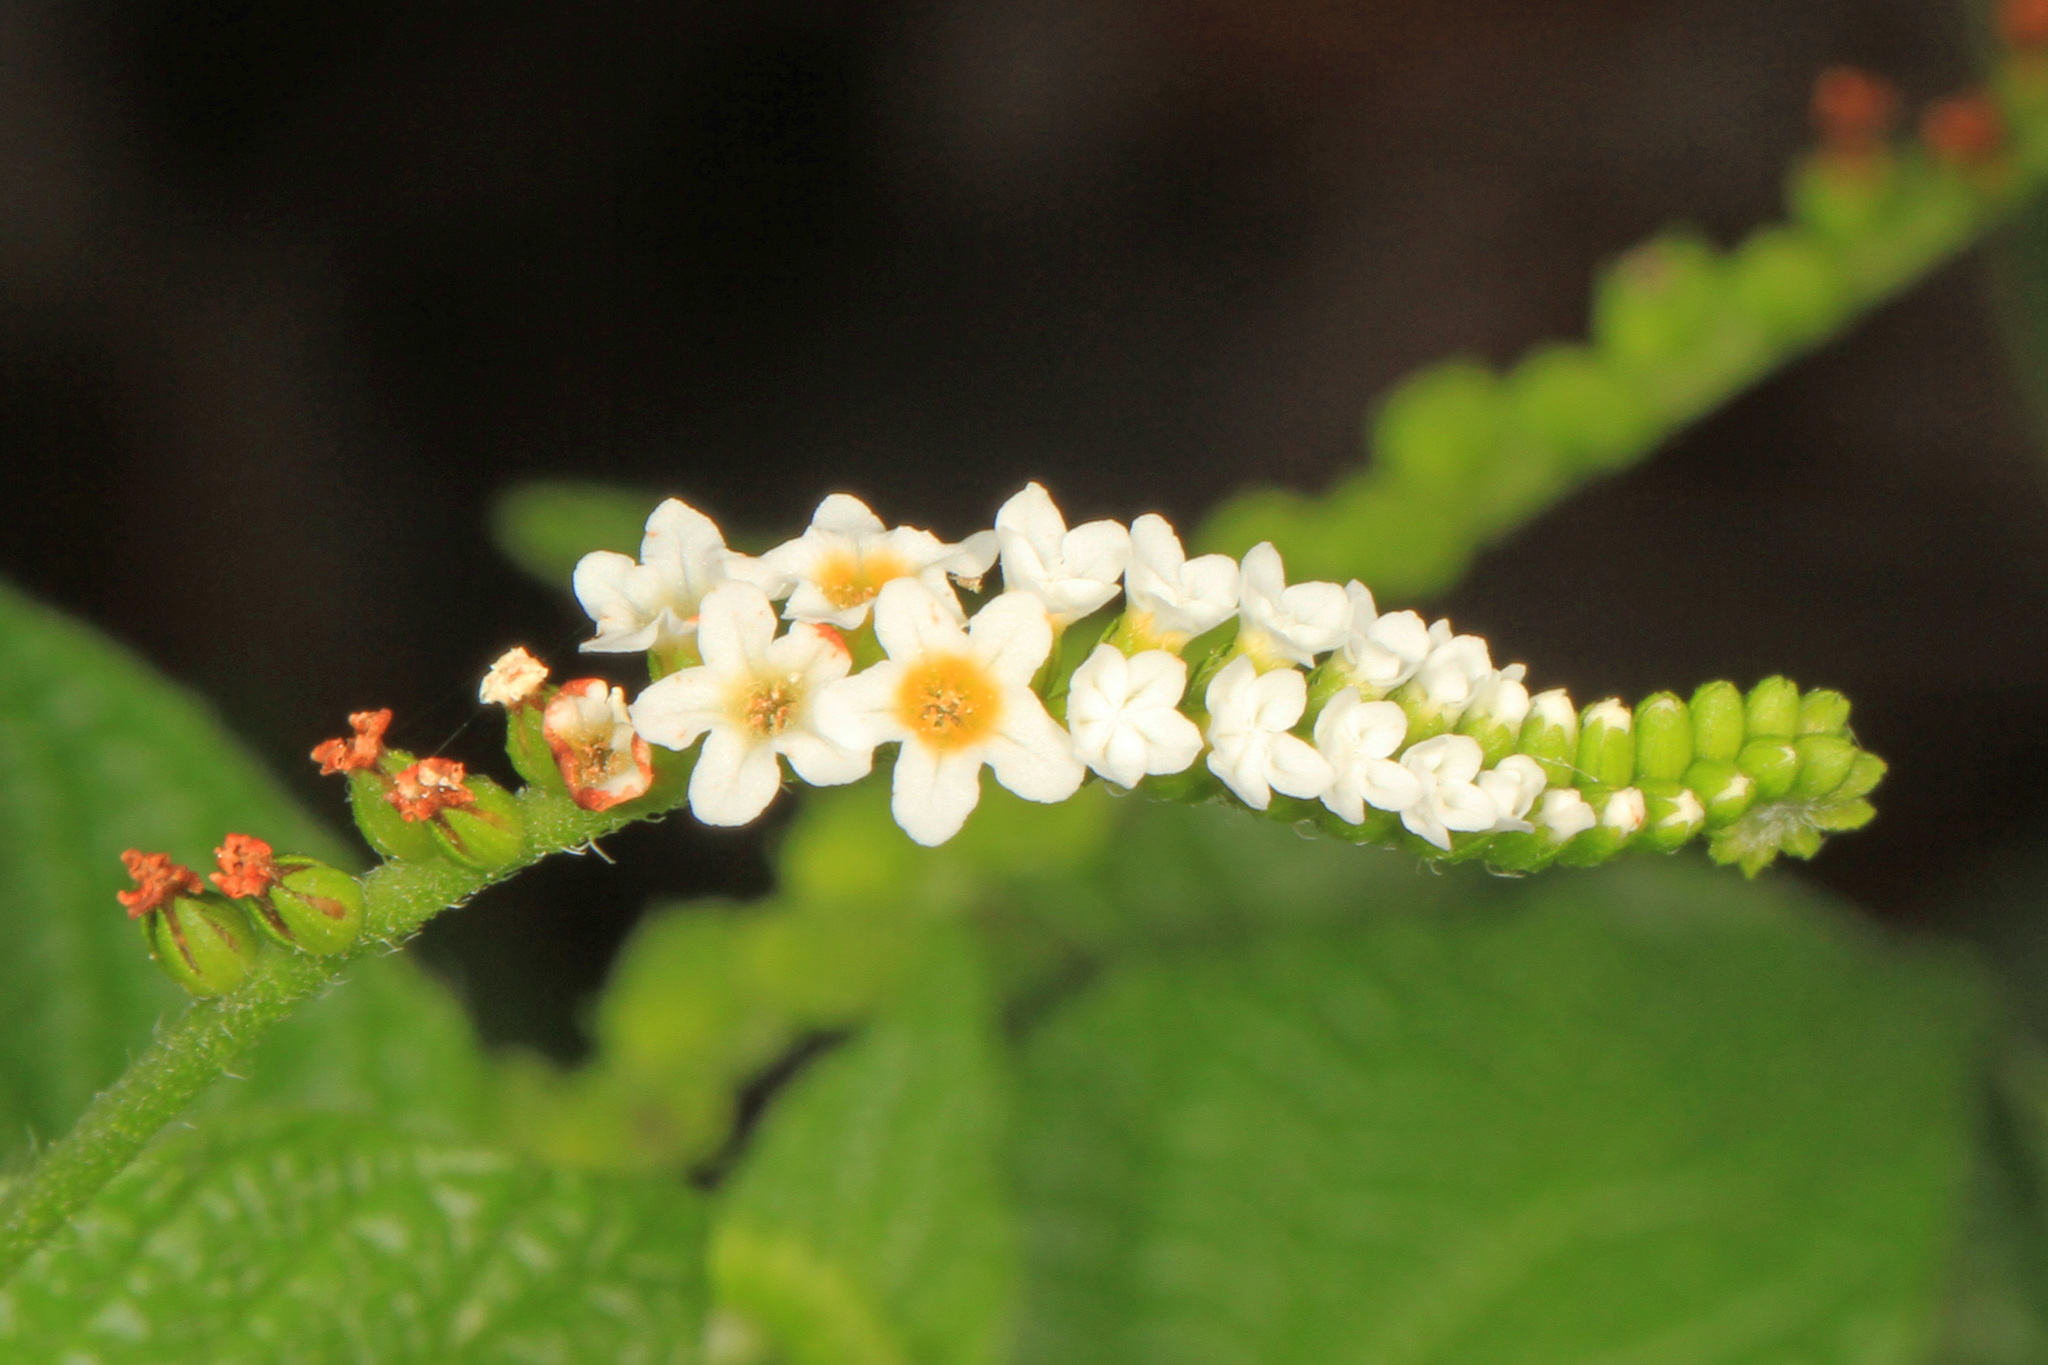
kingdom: Plantae
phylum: Tracheophyta
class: Magnoliopsida
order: Boraginales
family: Heliotropiaceae
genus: Heliotropium
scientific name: Heliotropium angiospermum
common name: Eye bright
